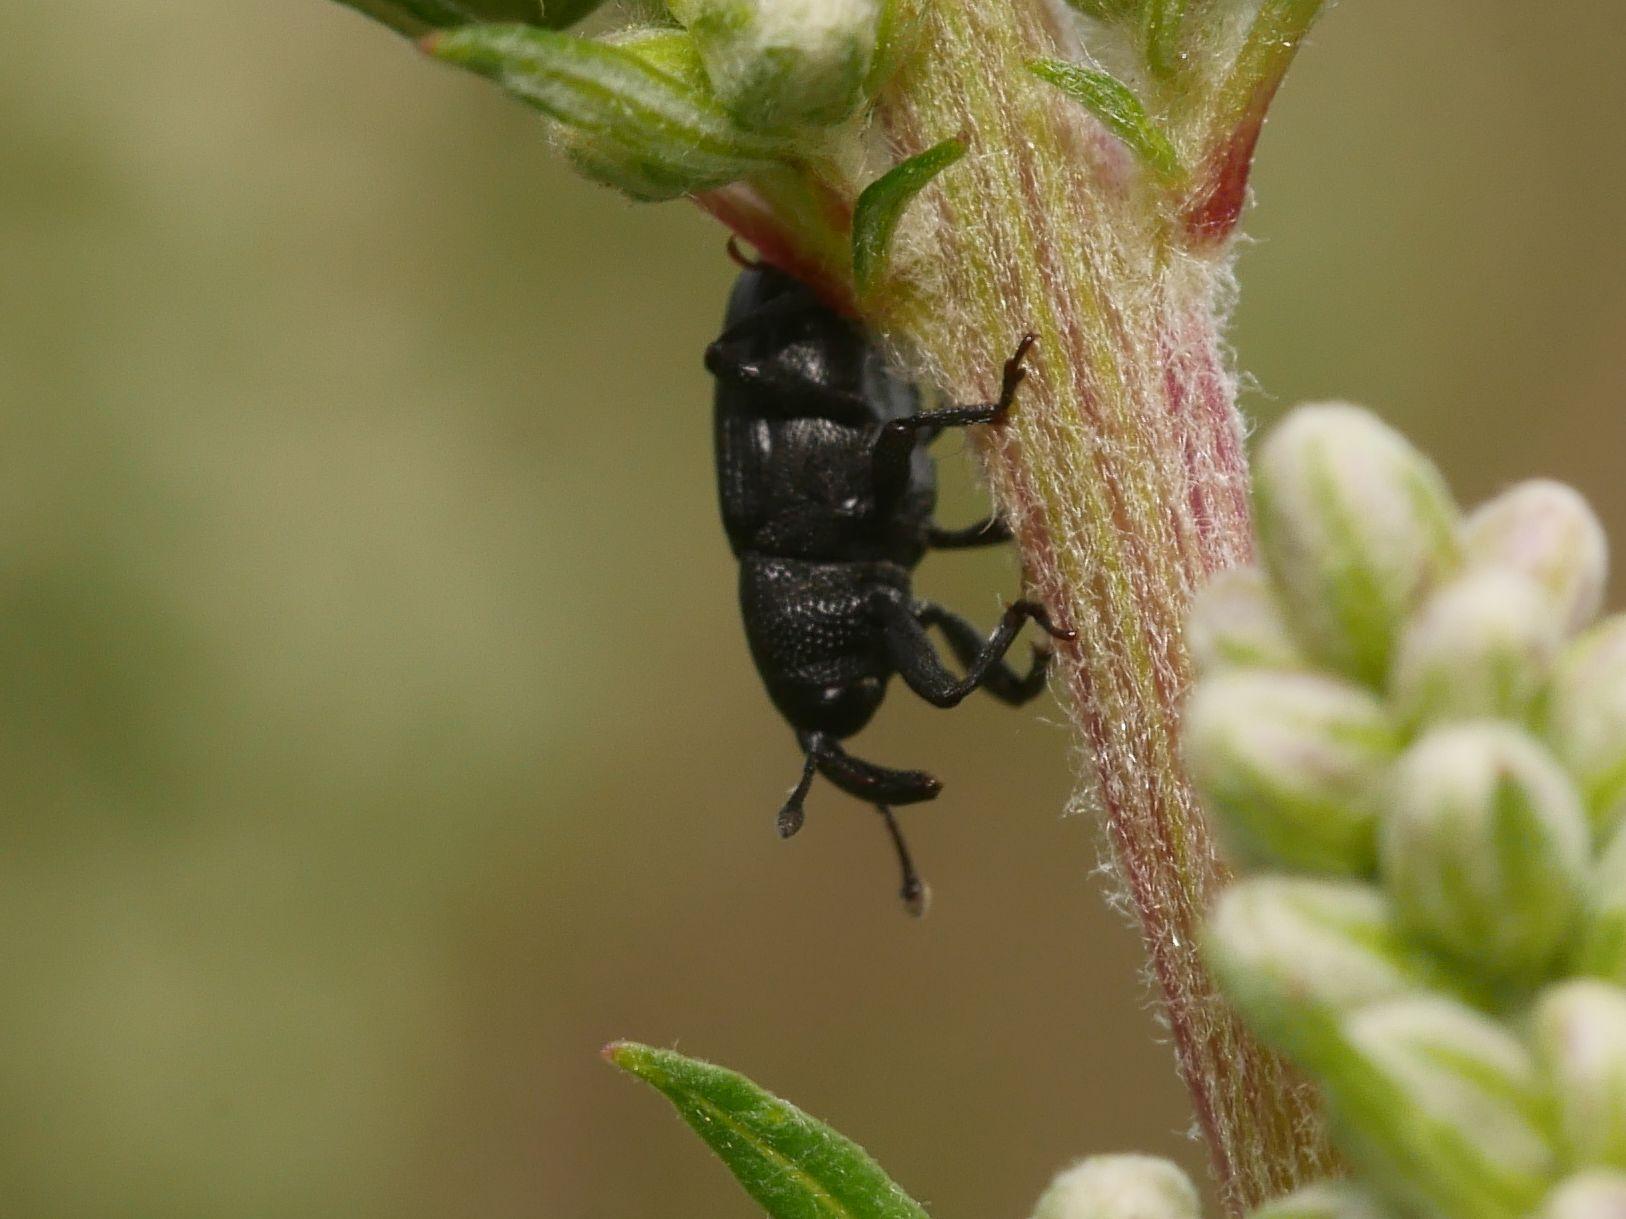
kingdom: Animalia
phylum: Arthropoda
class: Insecta
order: Coleoptera
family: Curculionidae
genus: Baris
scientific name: Baris artemisiae
